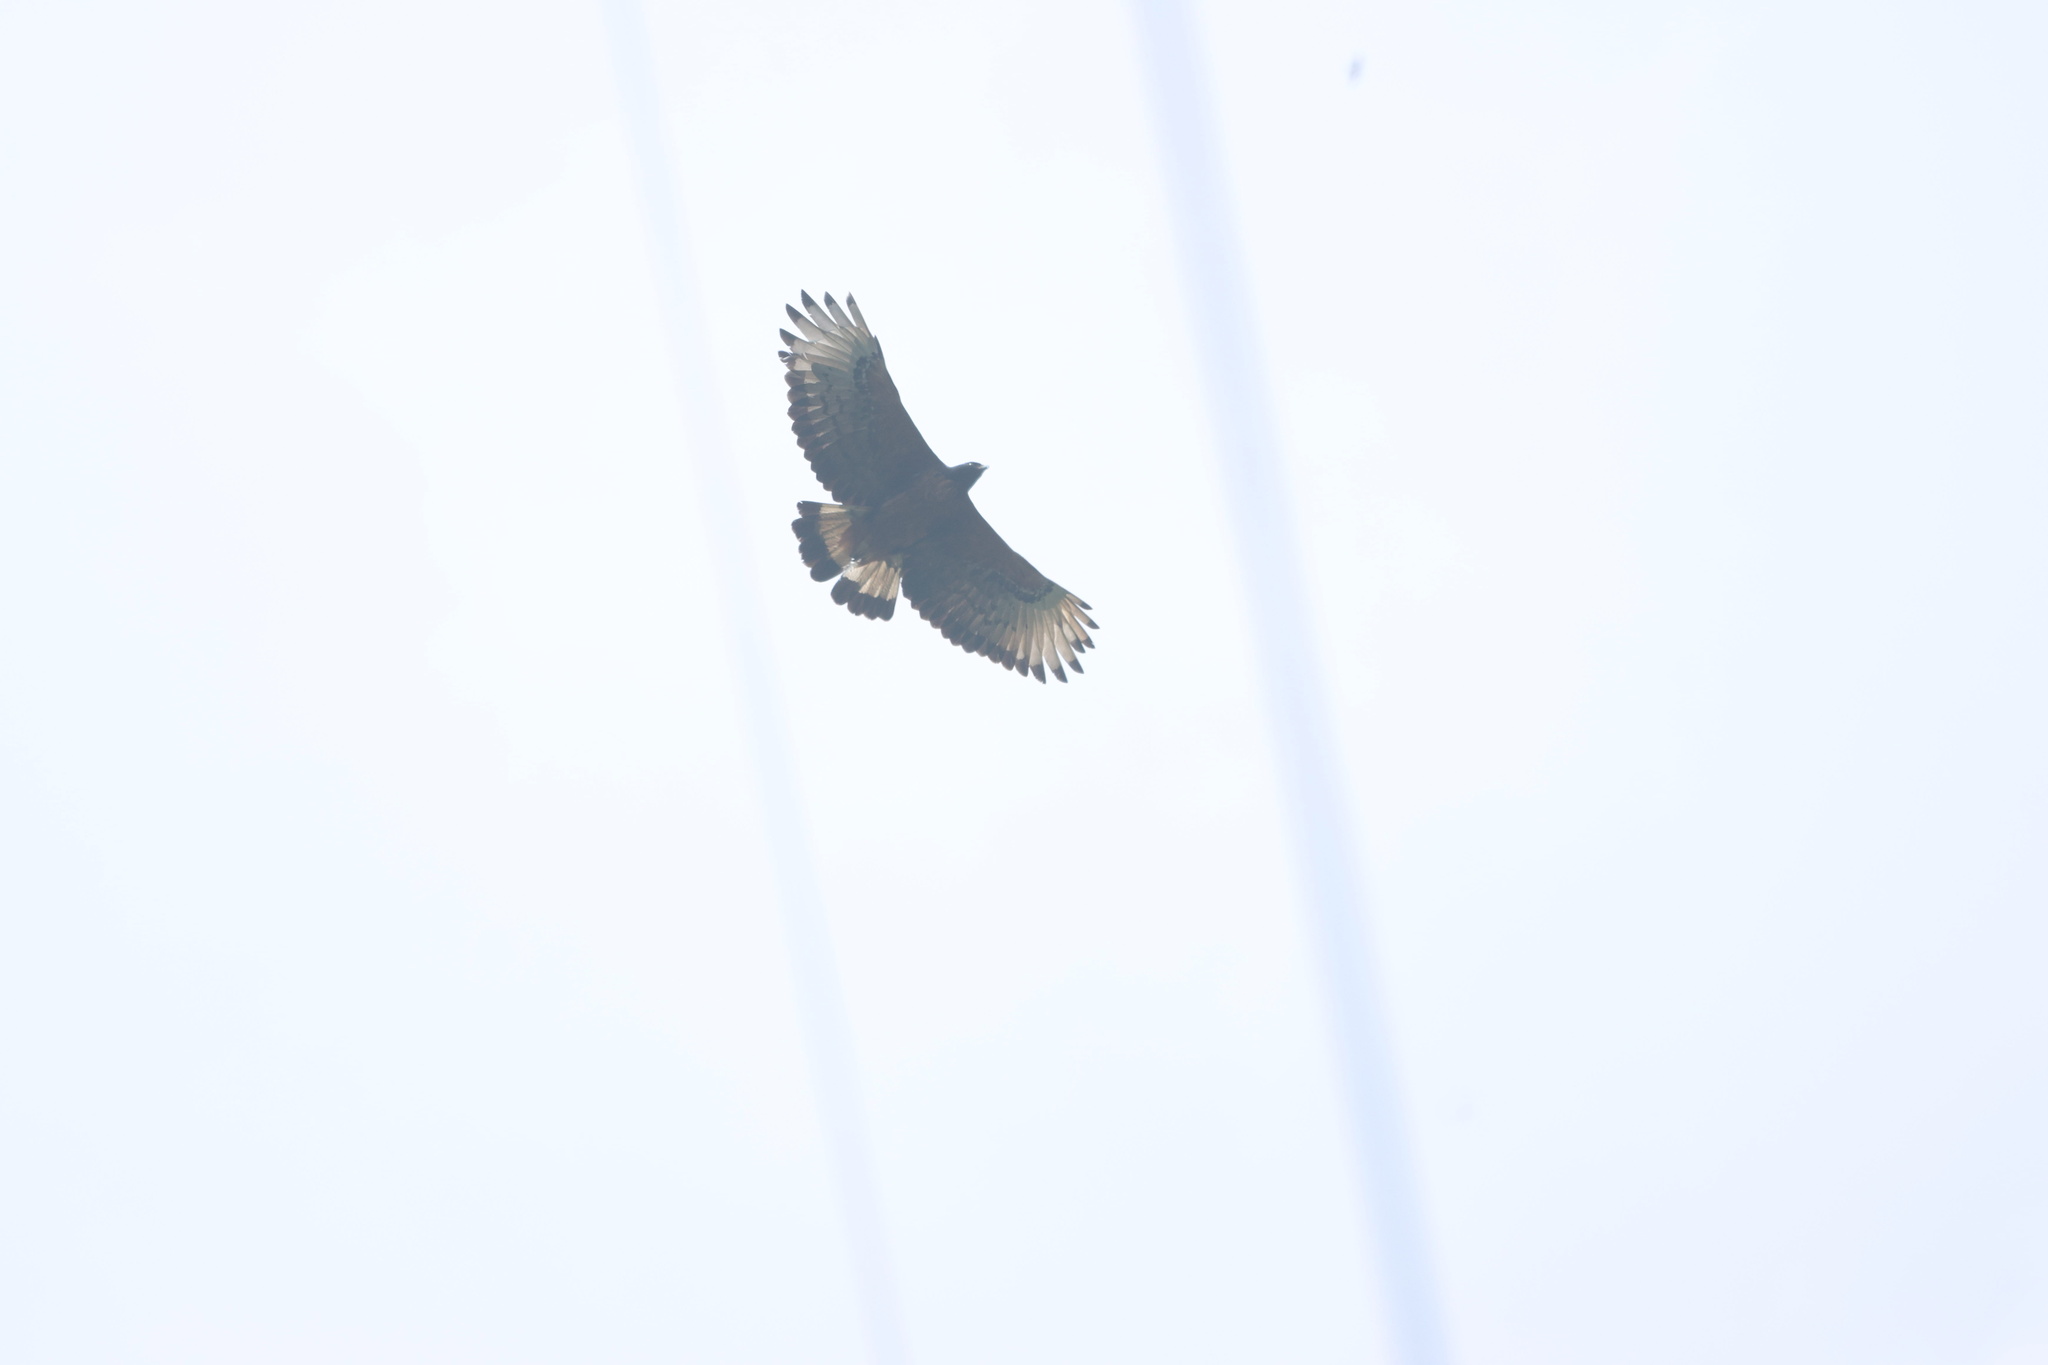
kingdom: Animalia
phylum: Chordata
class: Aves
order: Accipitriformes
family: Accipitridae
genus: Spizaetus
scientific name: Spizaetus isidori
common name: Black-and-chestnut eagle
